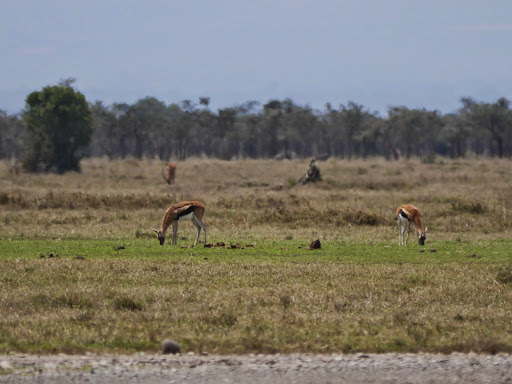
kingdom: Animalia
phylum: Chordata
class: Mammalia
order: Artiodactyla
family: Bovidae
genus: Eudorcas
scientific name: Eudorcas thomsonii
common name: Thomson's gazelle
